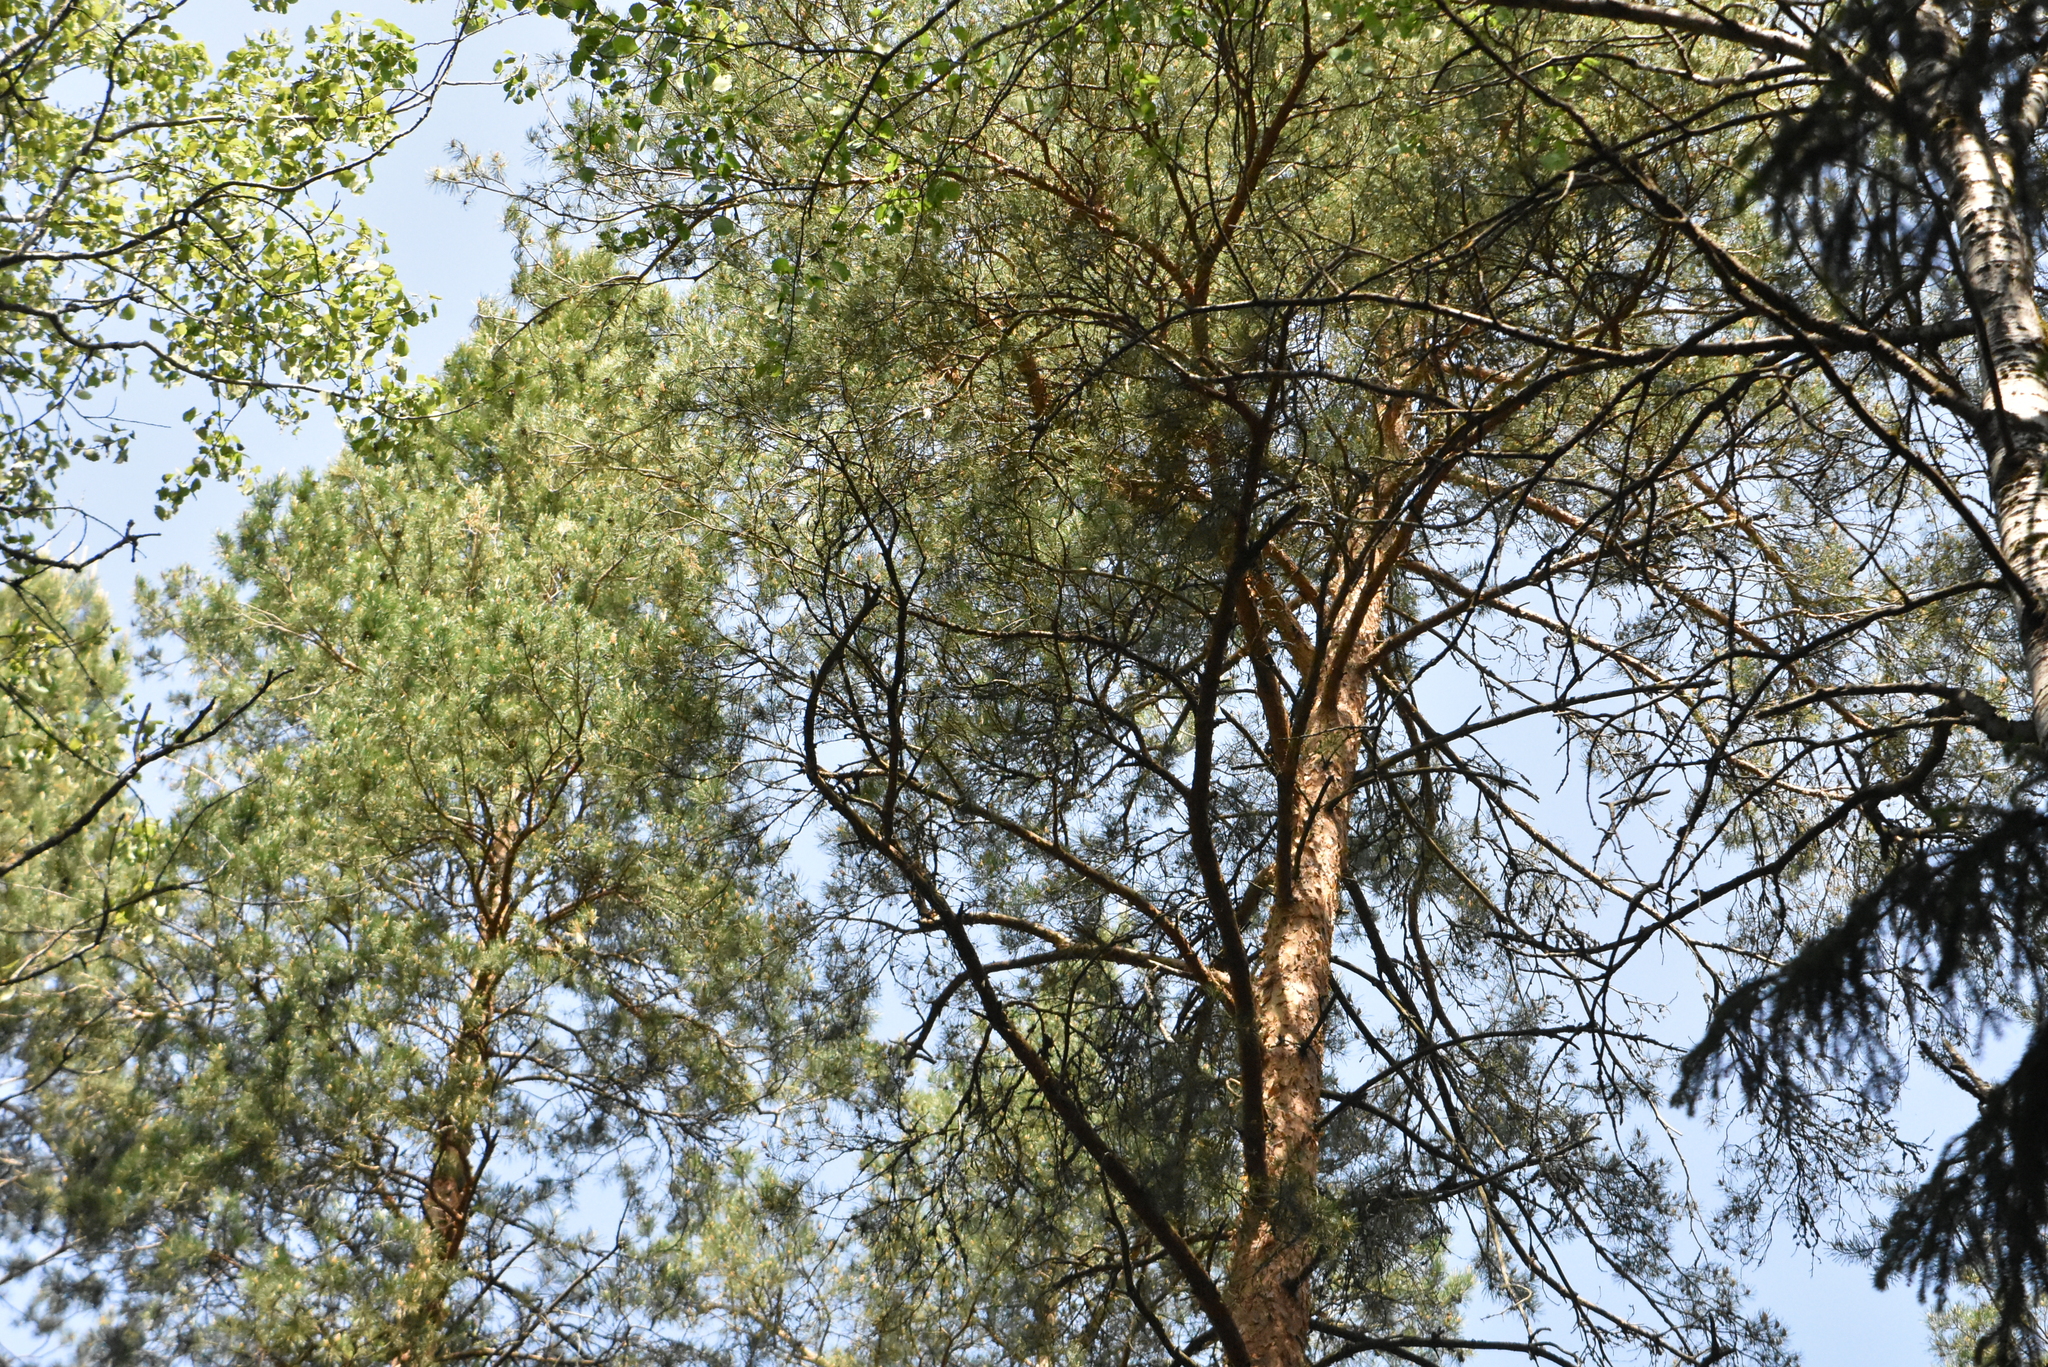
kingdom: Plantae
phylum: Tracheophyta
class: Pinopsida
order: Pinales
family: Pinaceae
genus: Pinus
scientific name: Pinus sylvestris
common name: Scots pine
